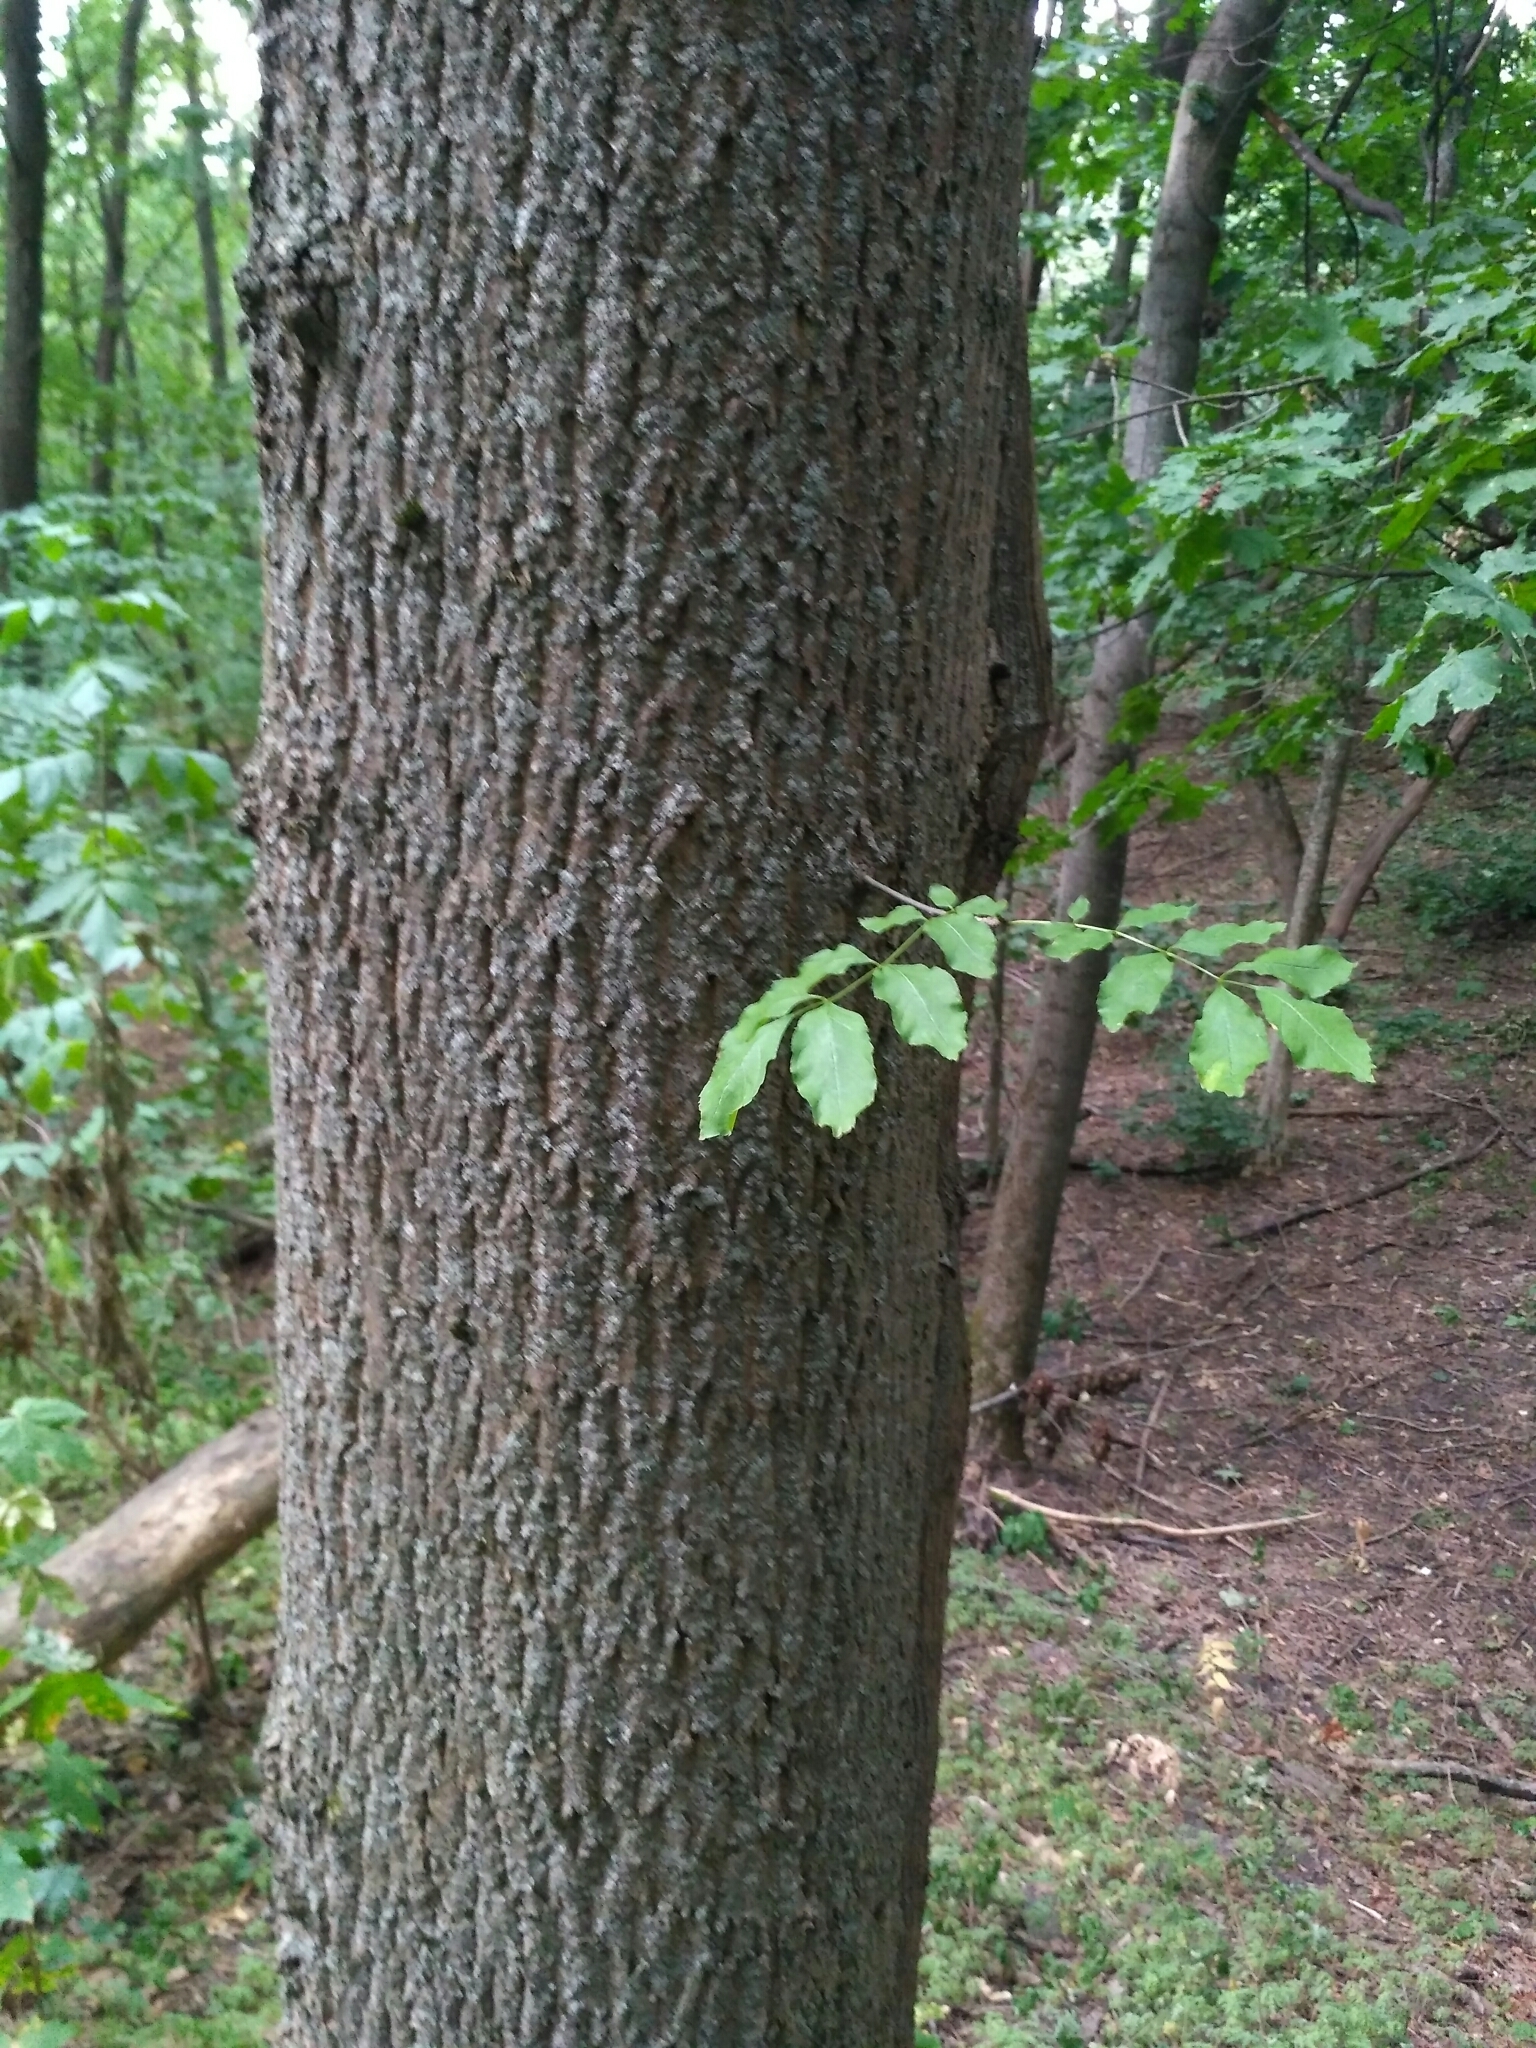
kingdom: Plantae
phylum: Tracheophyta
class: Magnoliopsida
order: Lamiales
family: Oleaceae
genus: Fraxinus
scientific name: Fraxinus excelsior
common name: European ash
